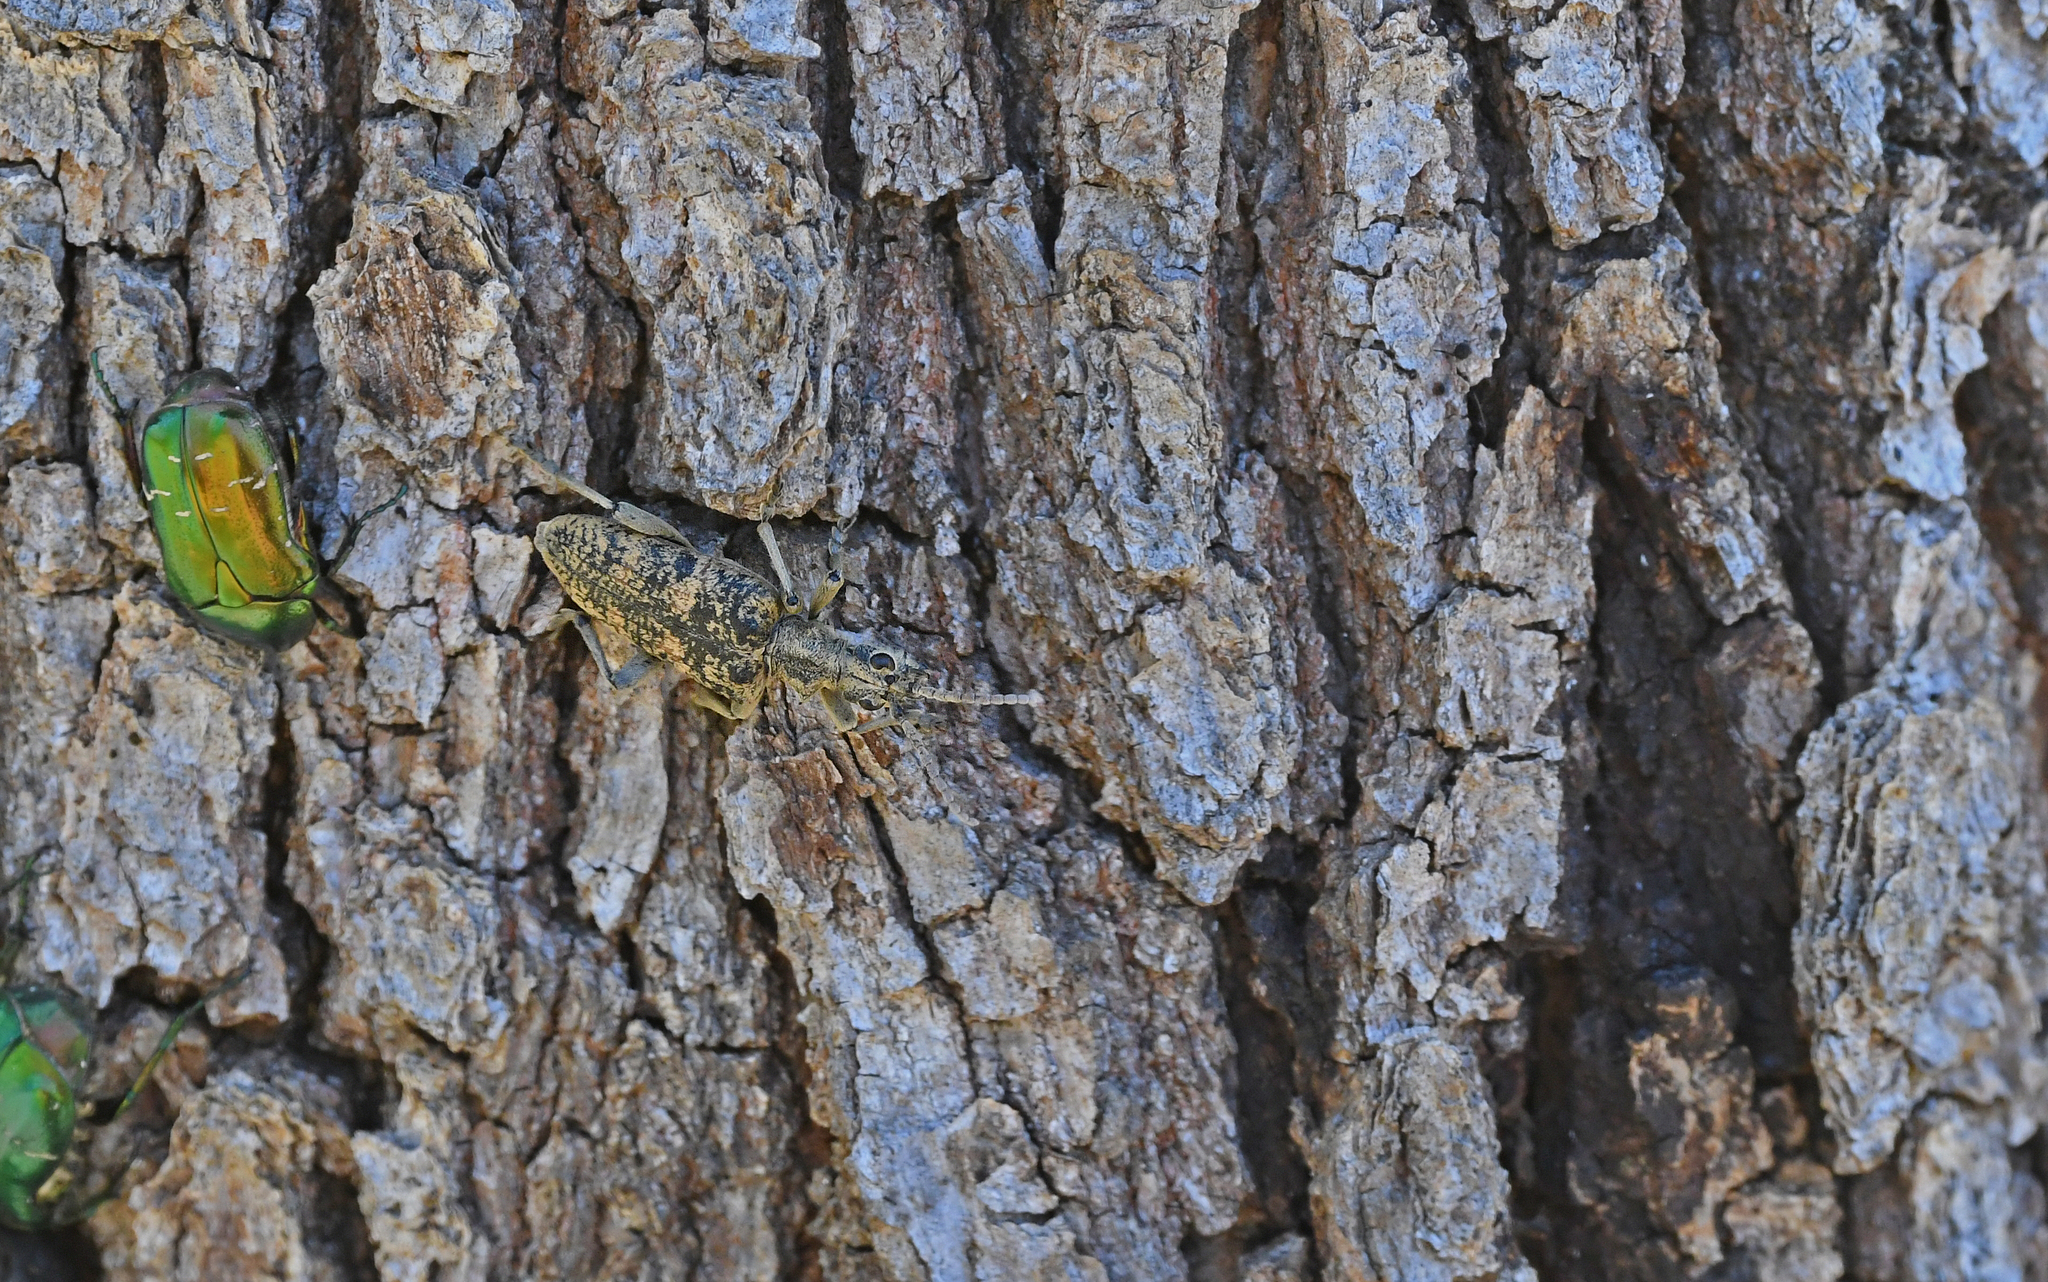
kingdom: Animalia
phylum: Arthropoda
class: Insecta
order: Coleoptera
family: Cerambycidae
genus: Rhagium
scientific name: Rhagium sycophanta
